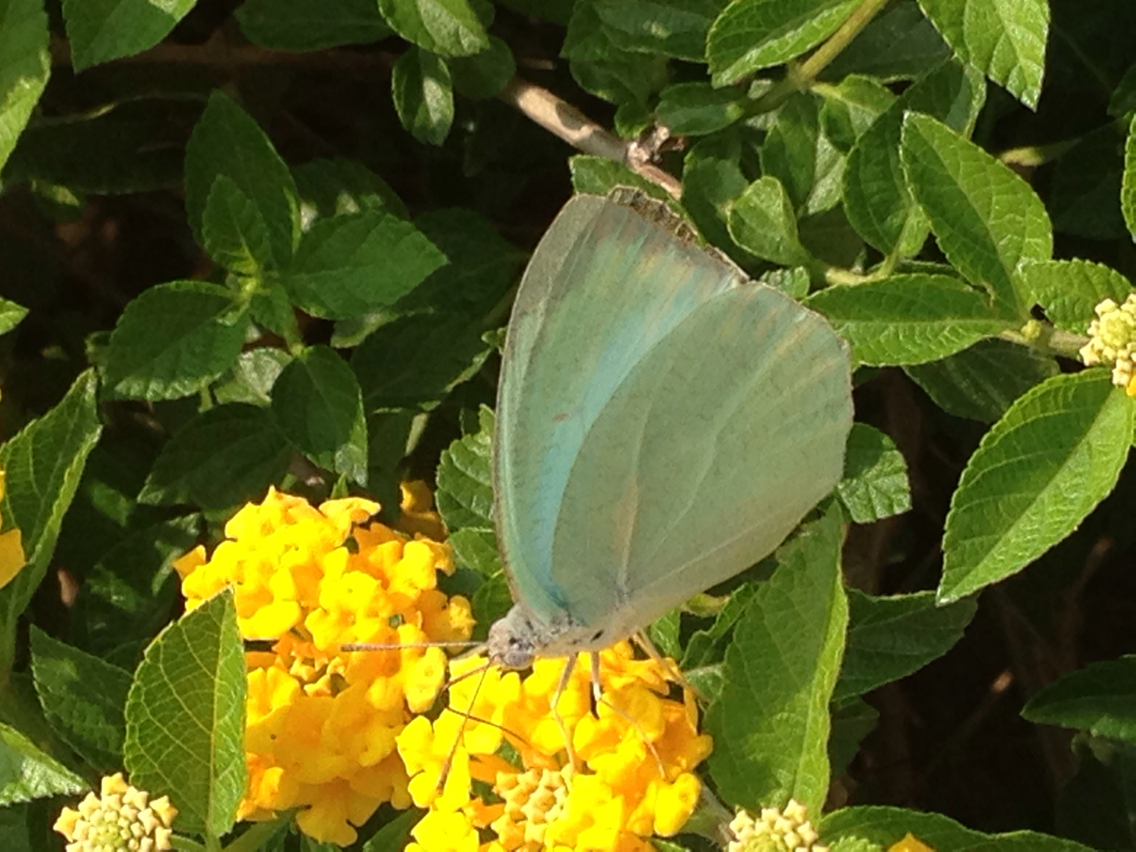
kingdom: Animalia
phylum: Arthropoda
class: Insecta
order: Lepidoptera
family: Pieridae
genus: Catopsilia
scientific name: Catopsilia pyranthe
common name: Mottled emigrant
